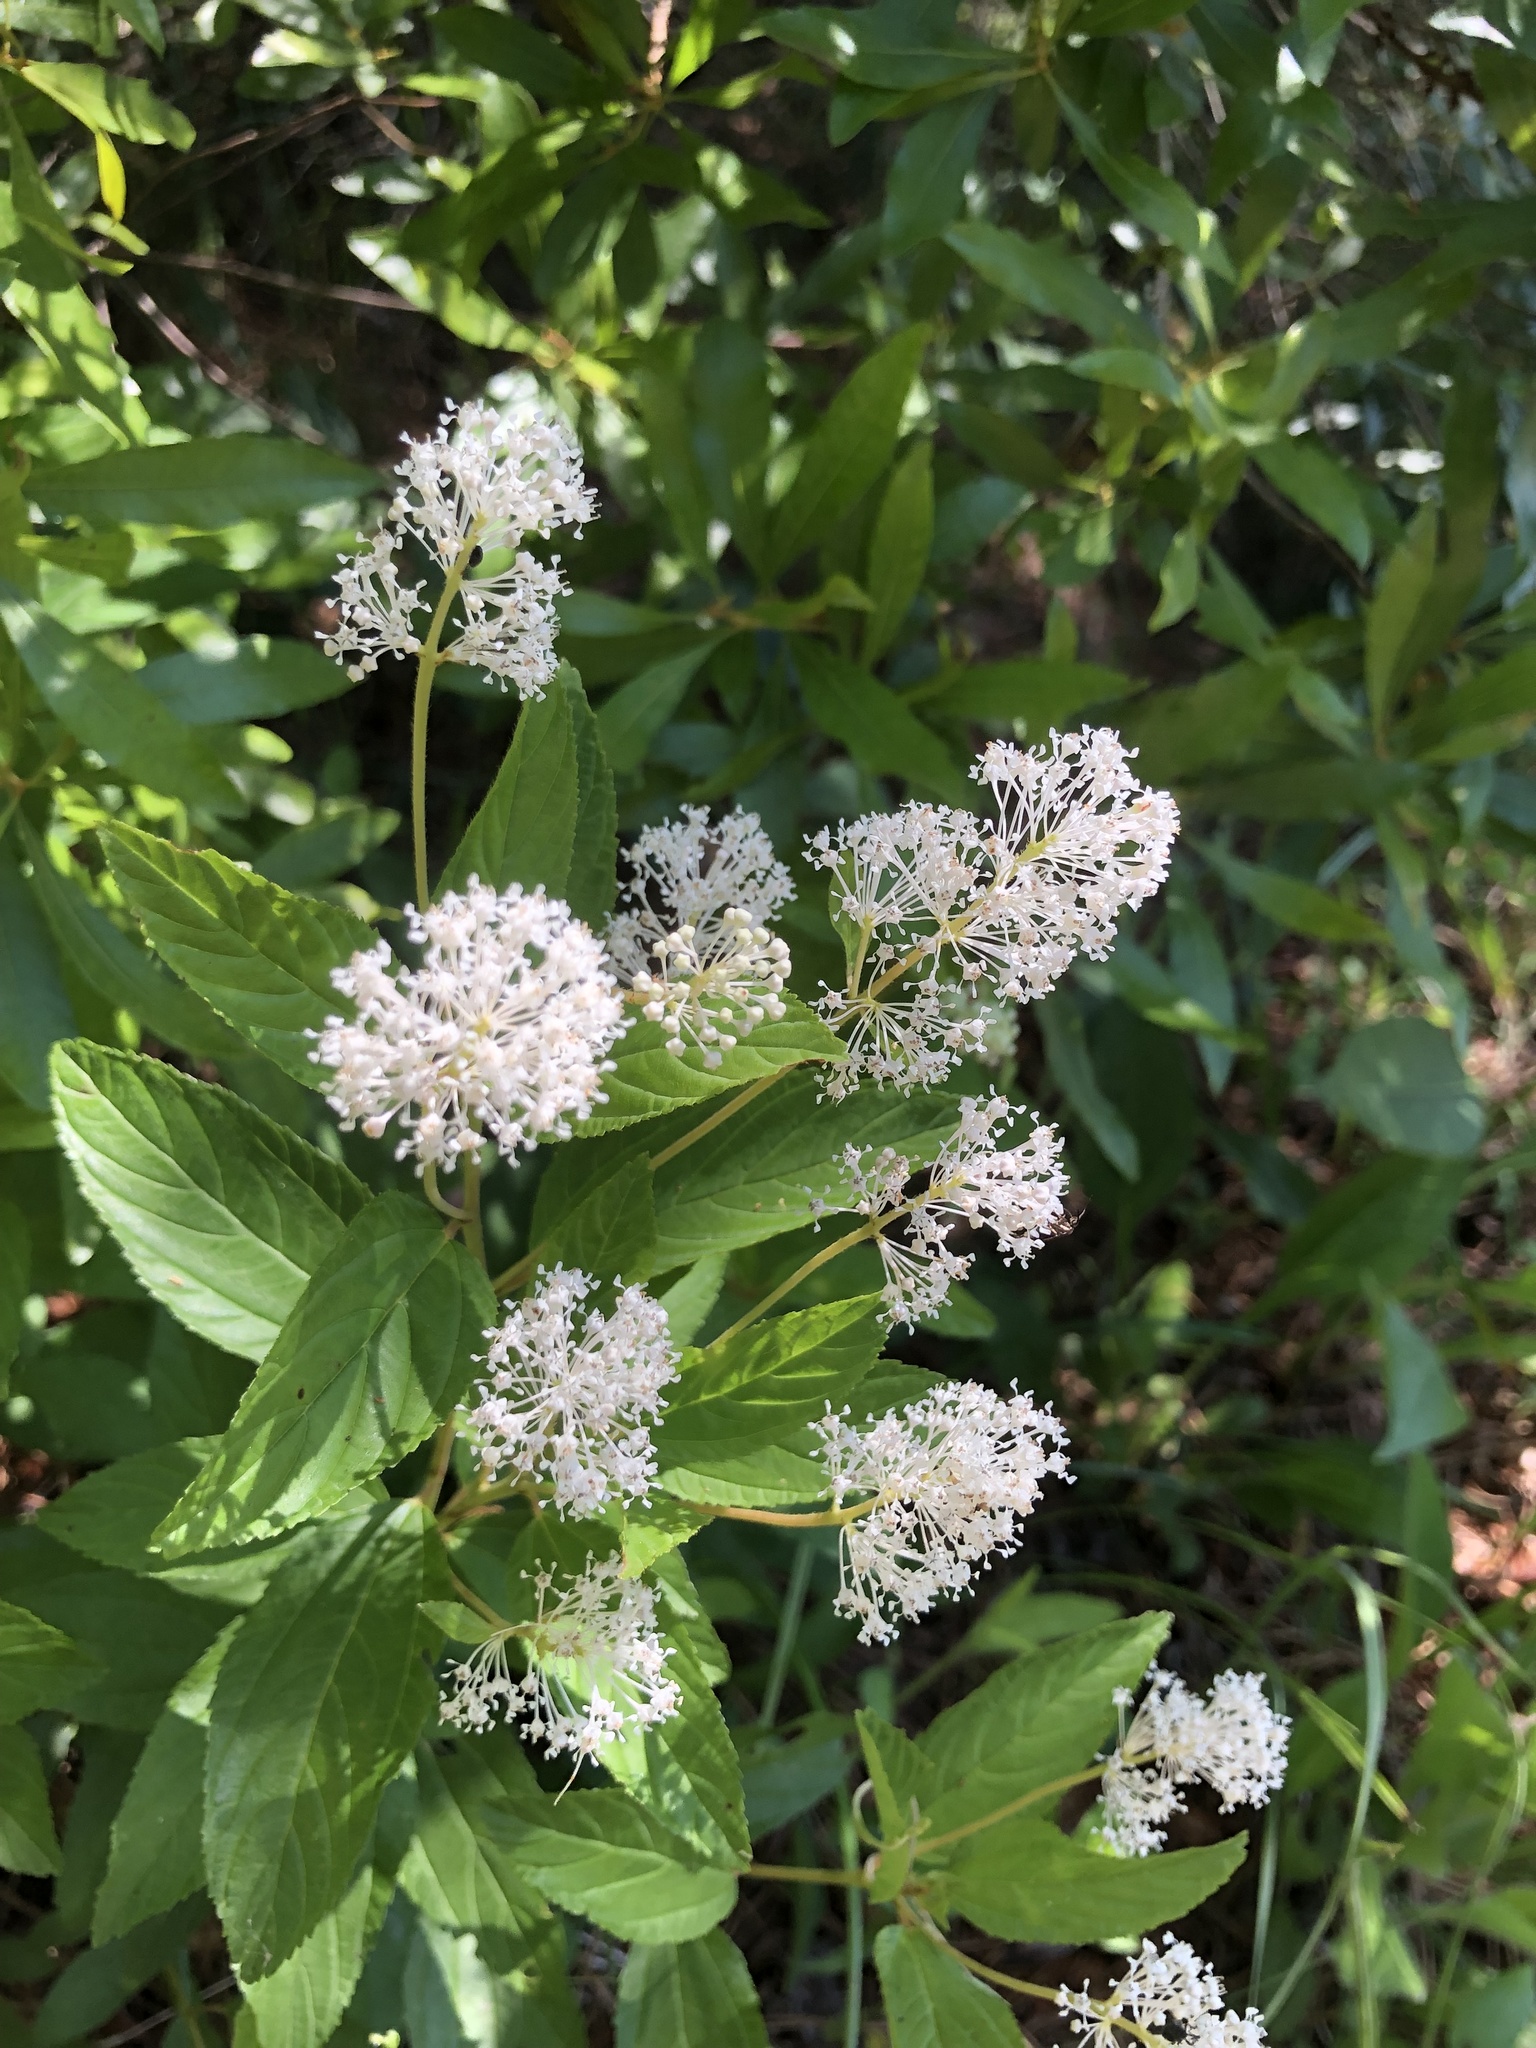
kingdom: Plantae
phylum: Tracheophyta
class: Magnoliopsida
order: Rosales
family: Rhamnaceae
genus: Ceanothus
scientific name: Ceanothus americanus
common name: Redroot
